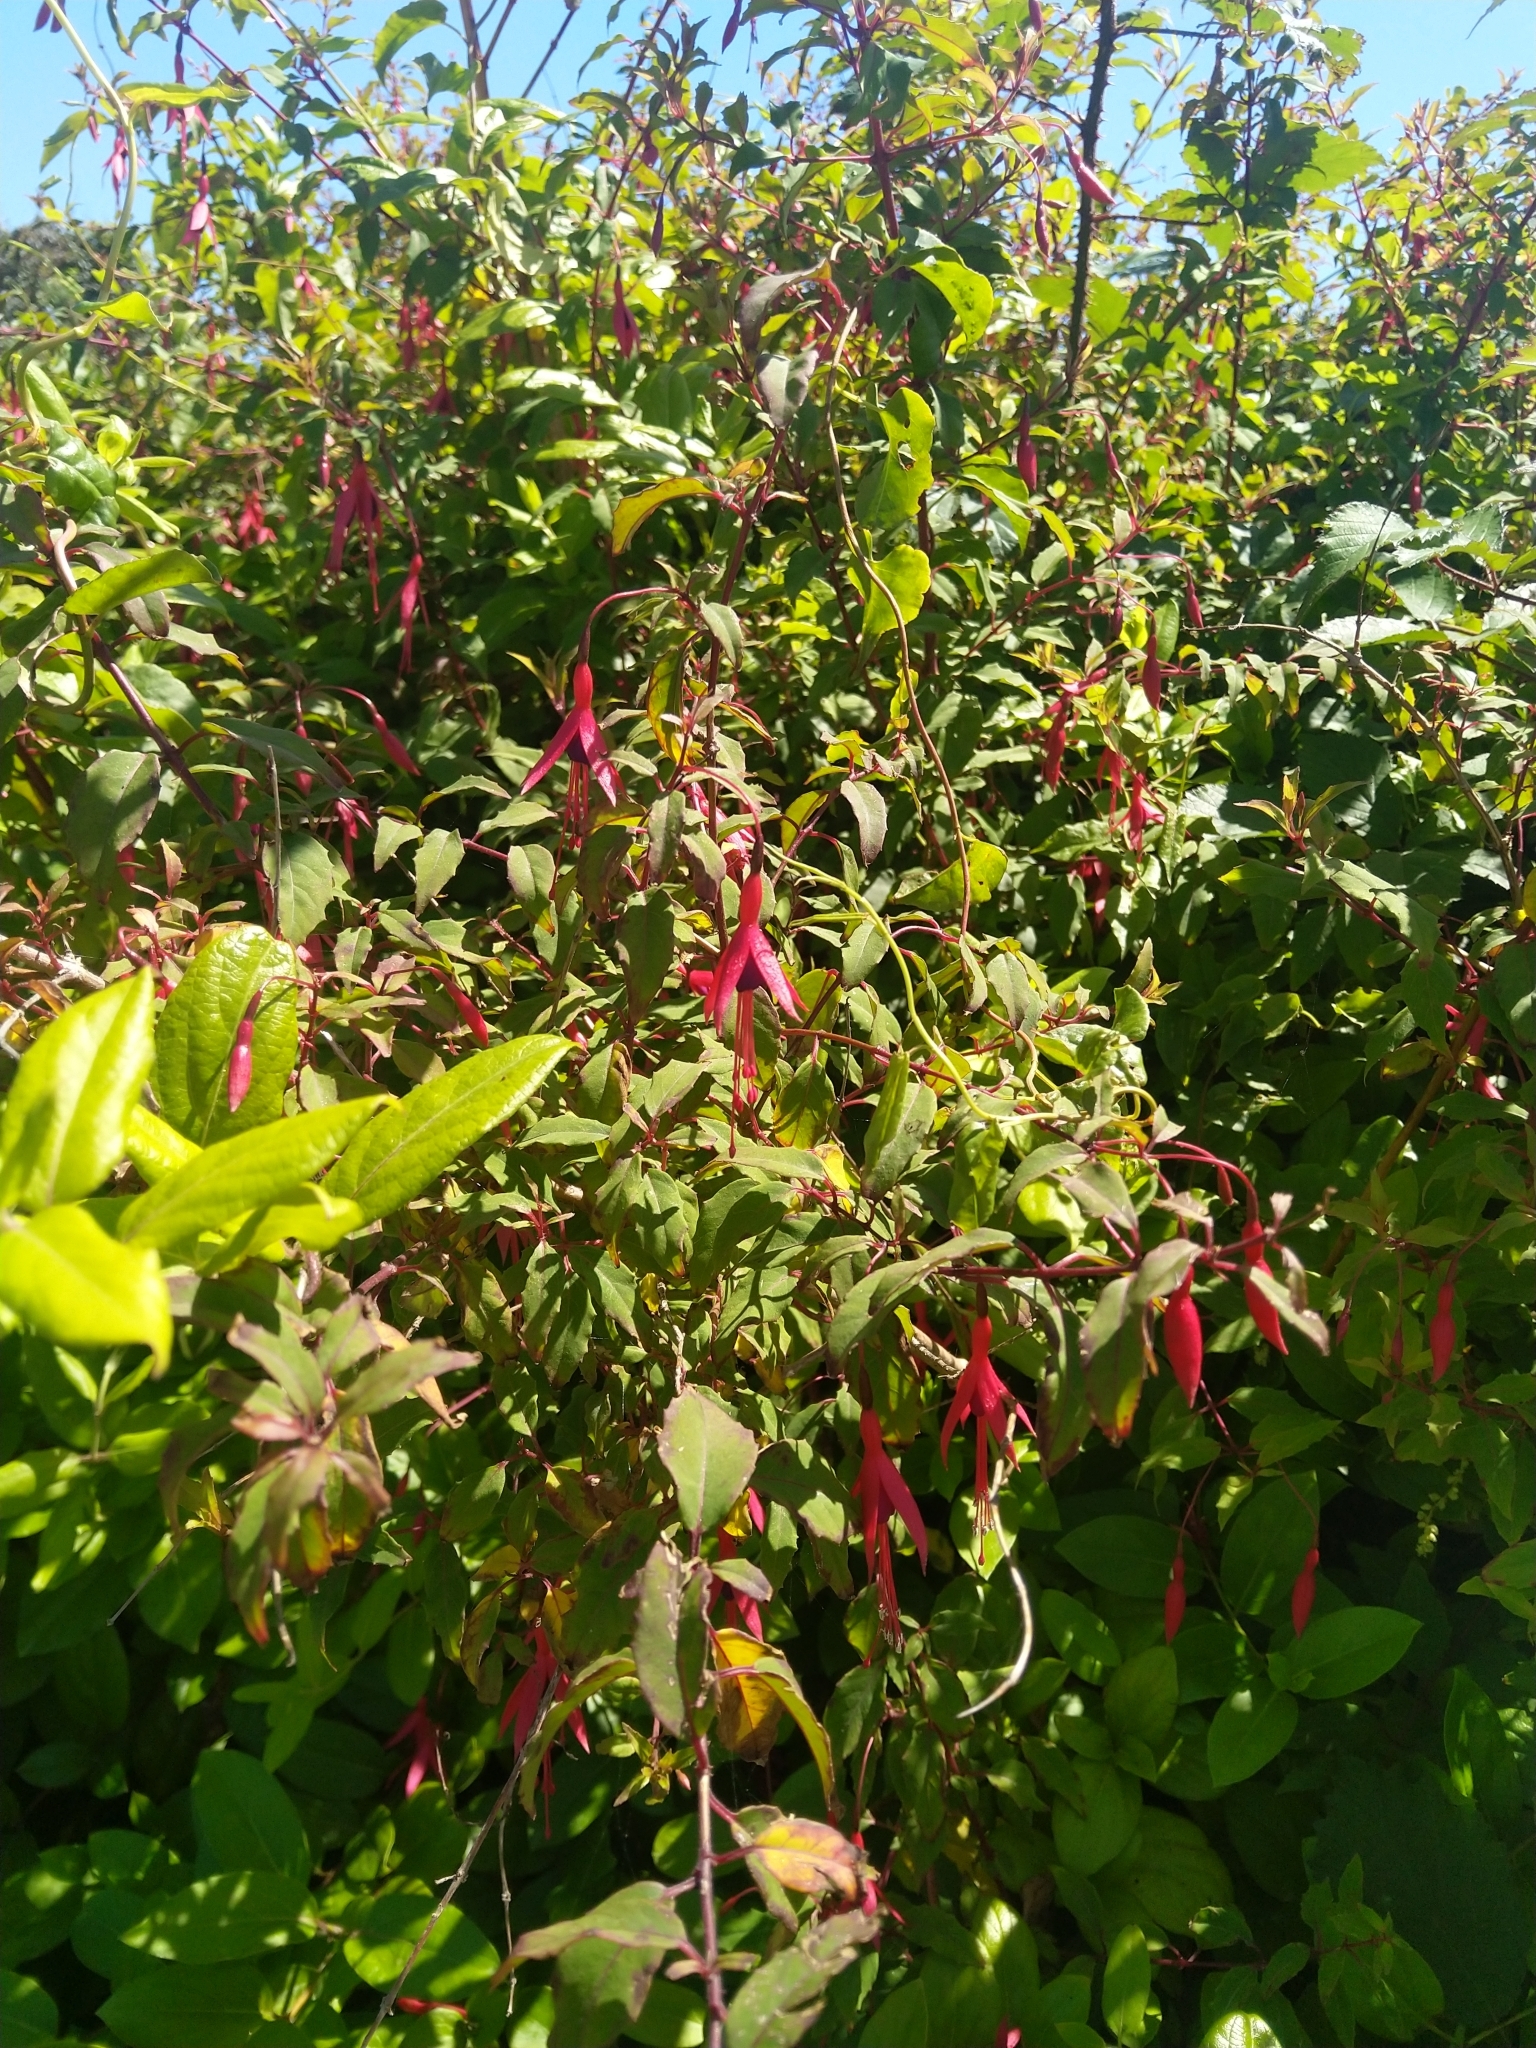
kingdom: Plantae
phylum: Tracheophyta
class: Magnoliopsida
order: Myrtales
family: Onagraceae
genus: Fuchsia
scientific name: Fuchsia magellanica
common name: Hardy fuchsia
